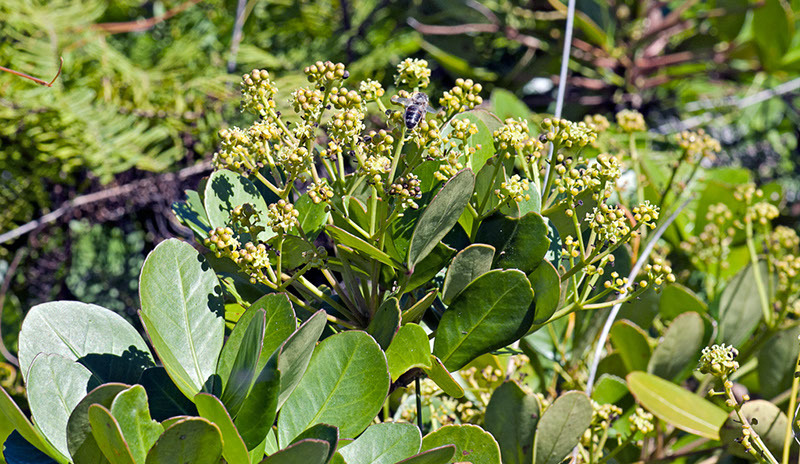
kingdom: Plantae
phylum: Tracheophyta
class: Magnoliopsida
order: Apiales
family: Araliaceae
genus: Pseudopanax
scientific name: Pseudopanax lessonii
